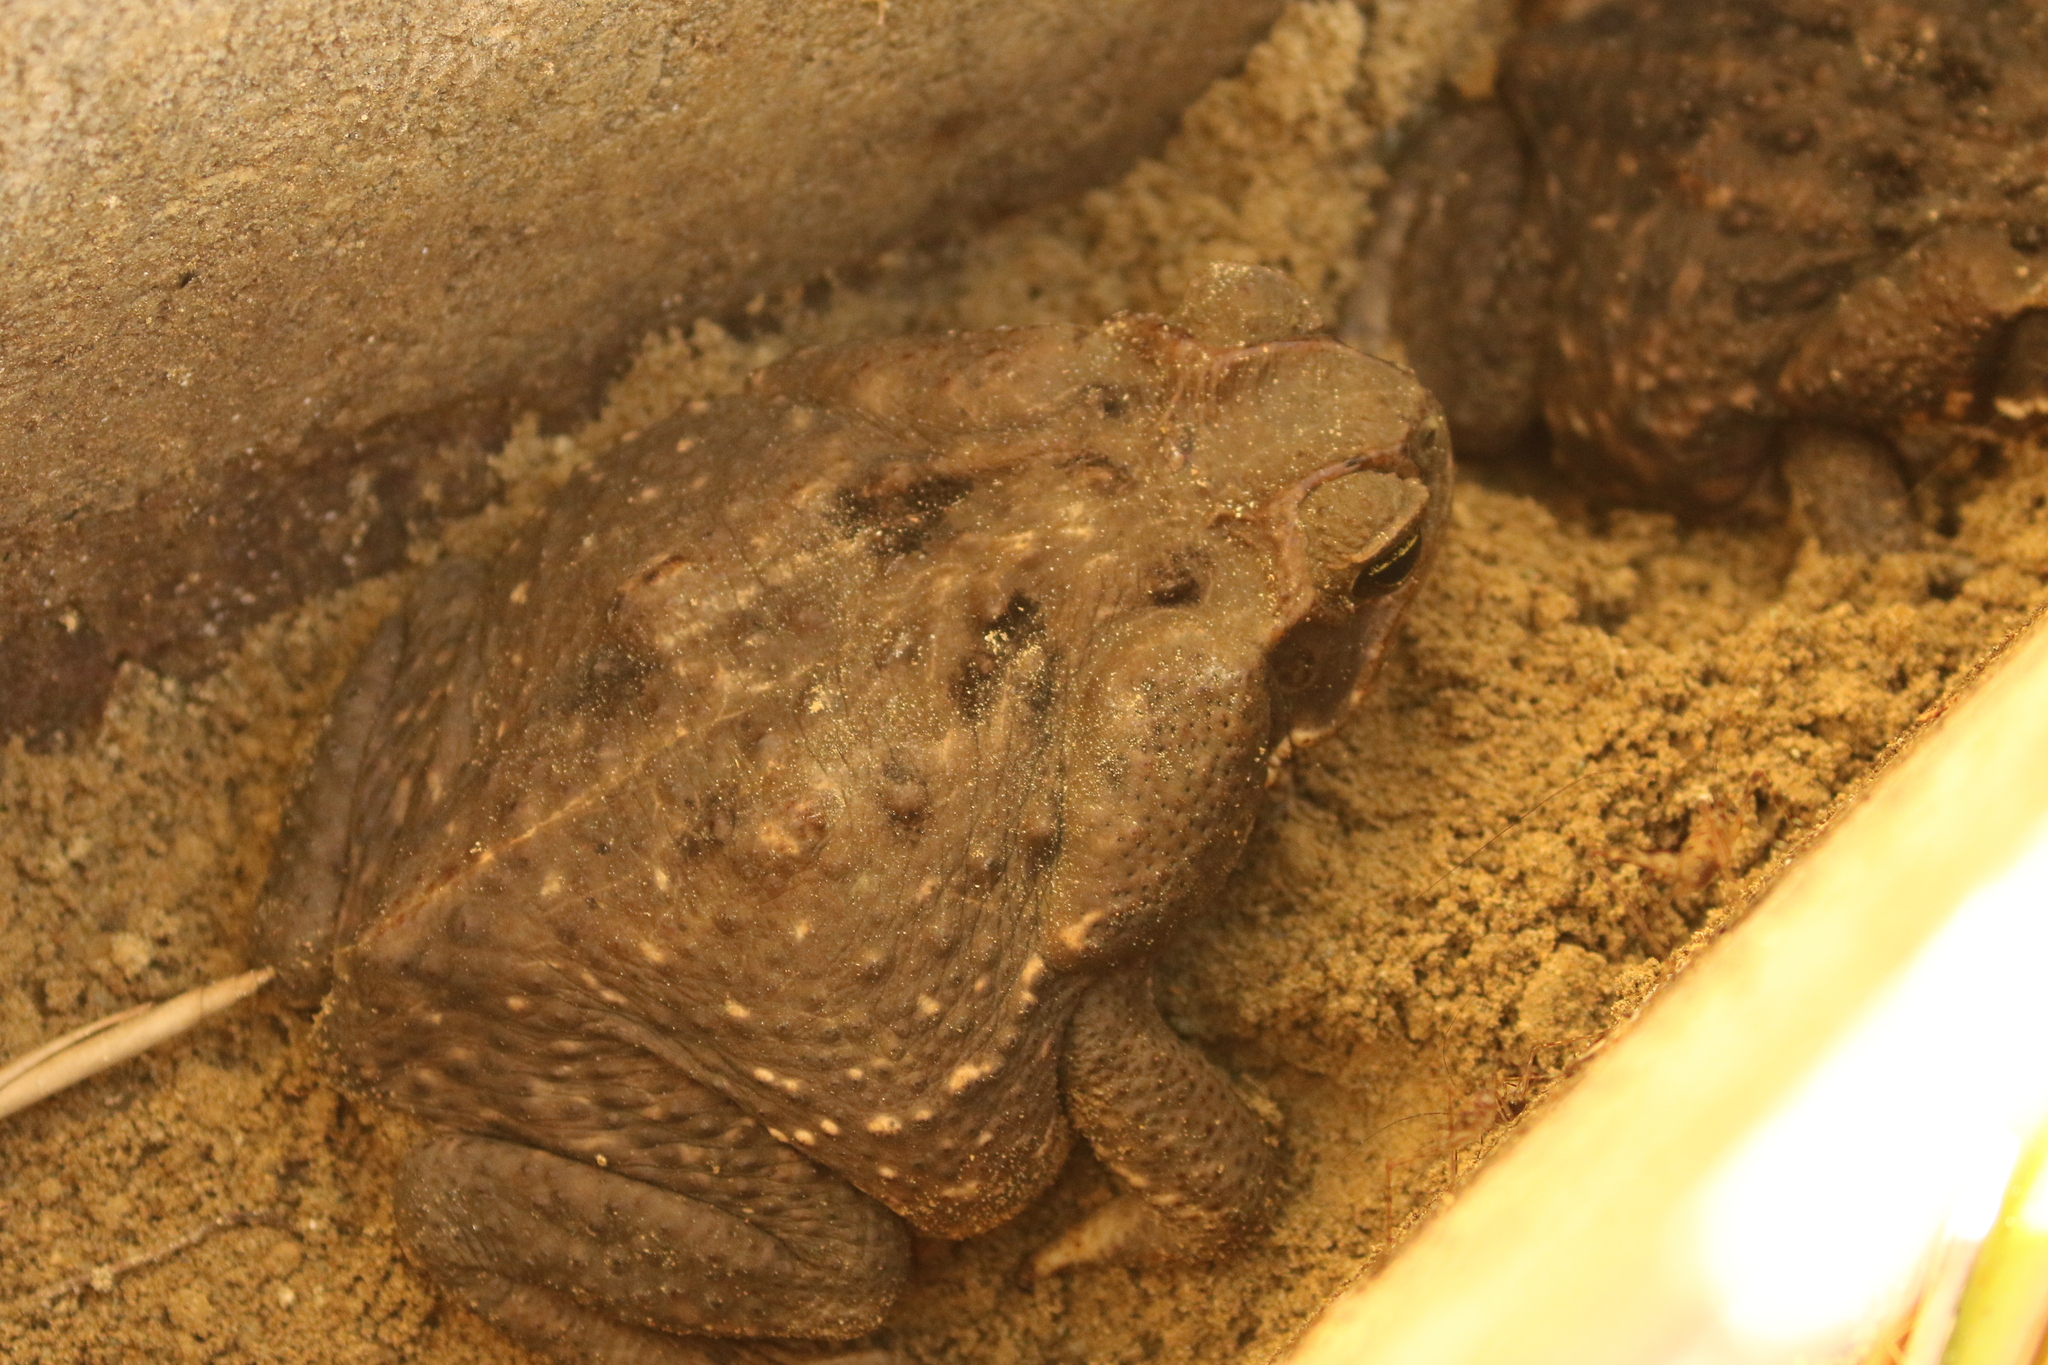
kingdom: Animalia
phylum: Chordata
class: Amphibia
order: Anura
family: Bufonidae
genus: Rhinella
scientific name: Rhinella horribilis
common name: Mesoamerican cane toad
